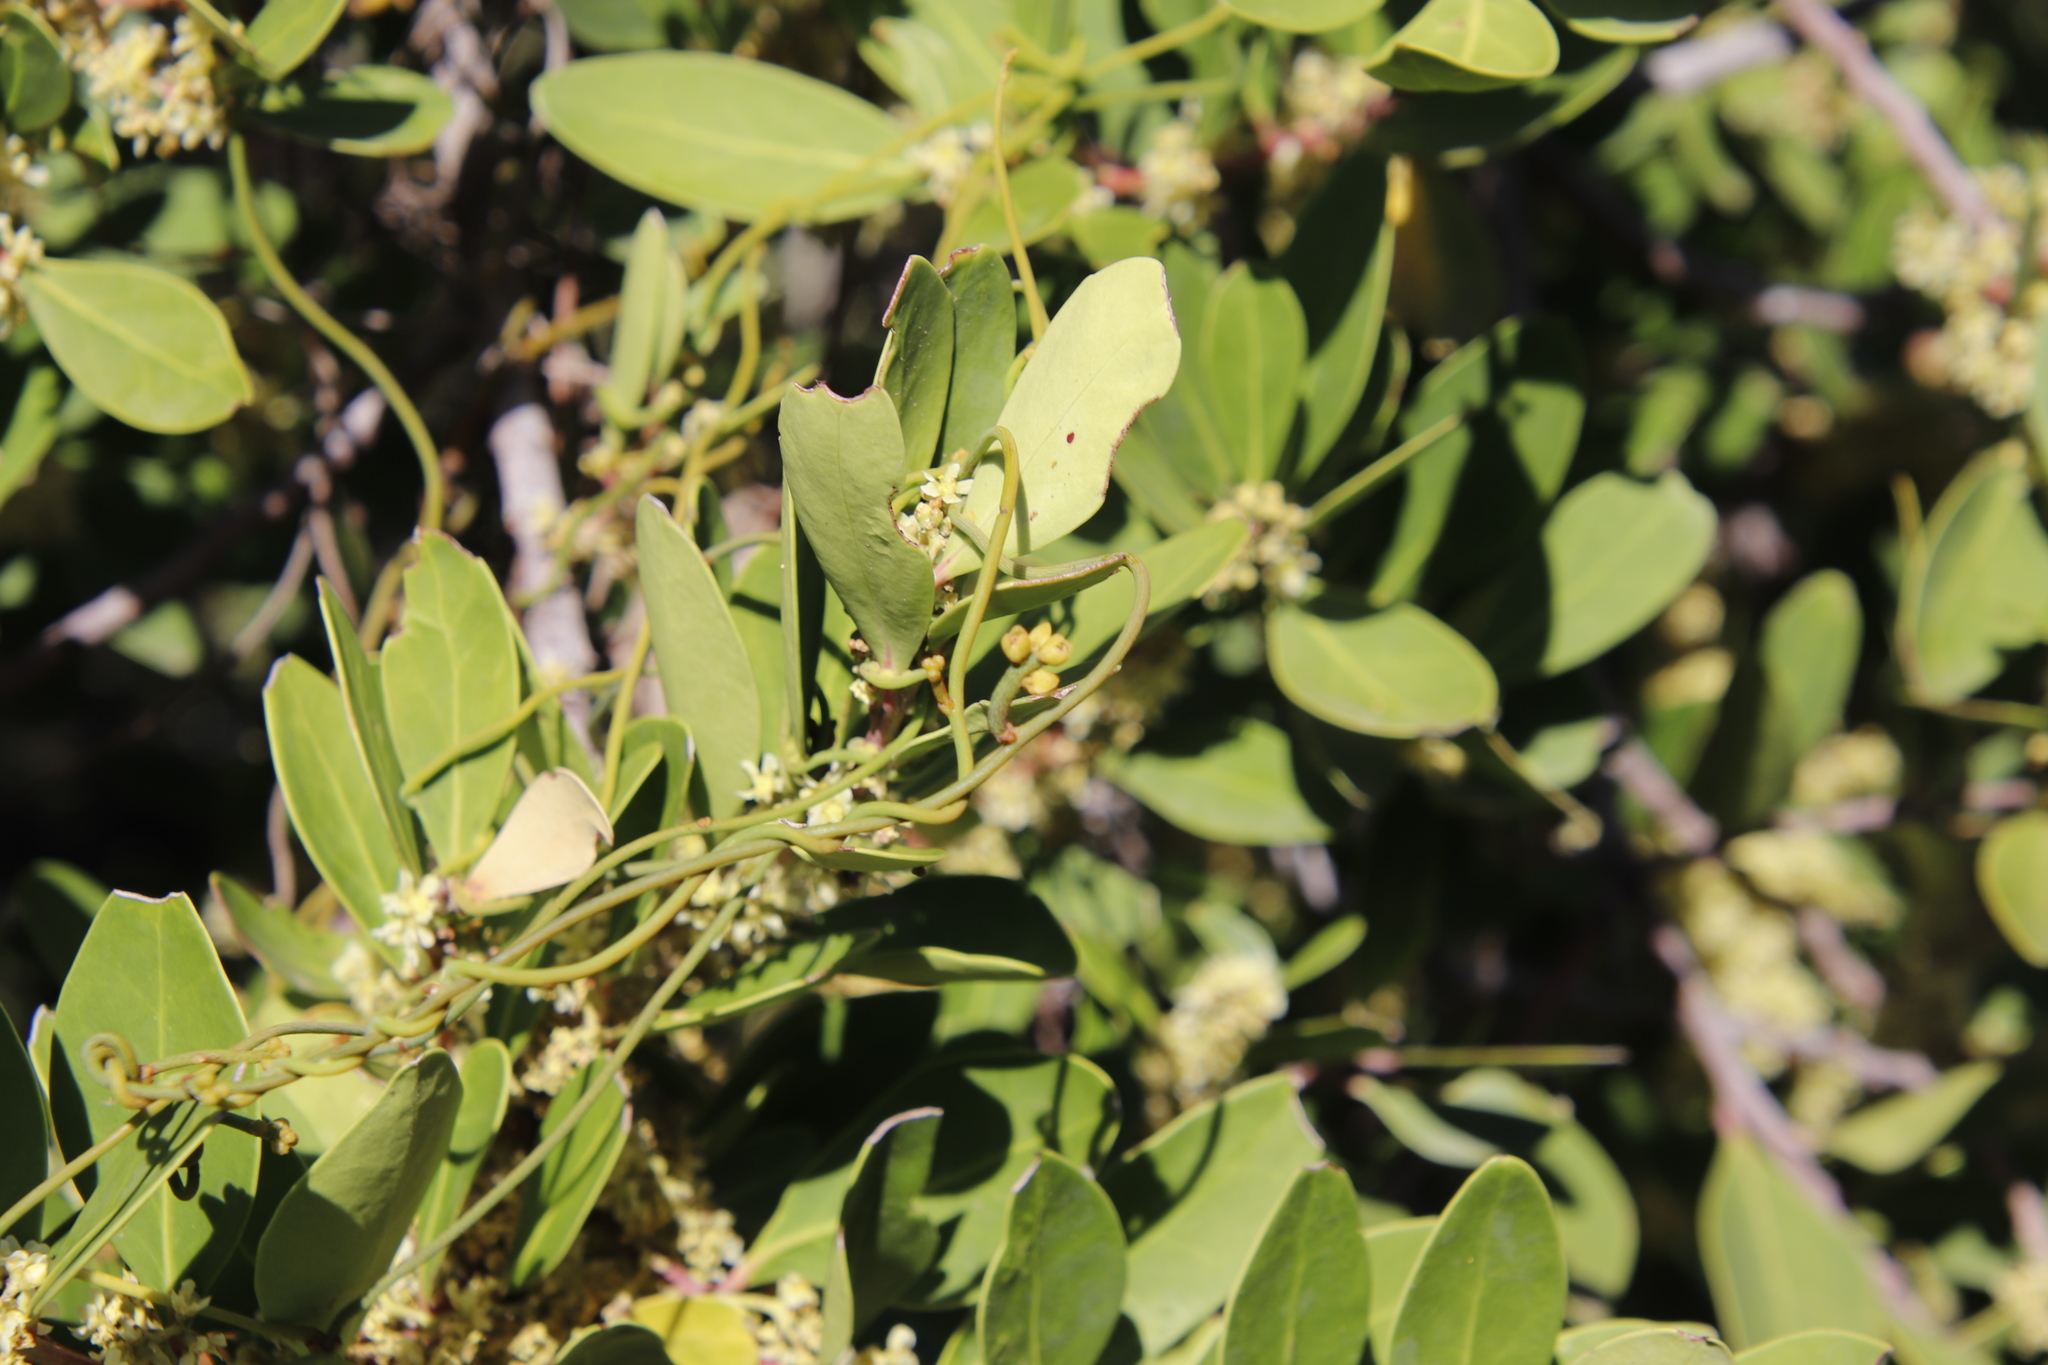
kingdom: Plantae
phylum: Tracheophyta
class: Magnoliopsida
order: Laurales
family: Lauraceae
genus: Cassytha
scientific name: Cassytha ciliolata
